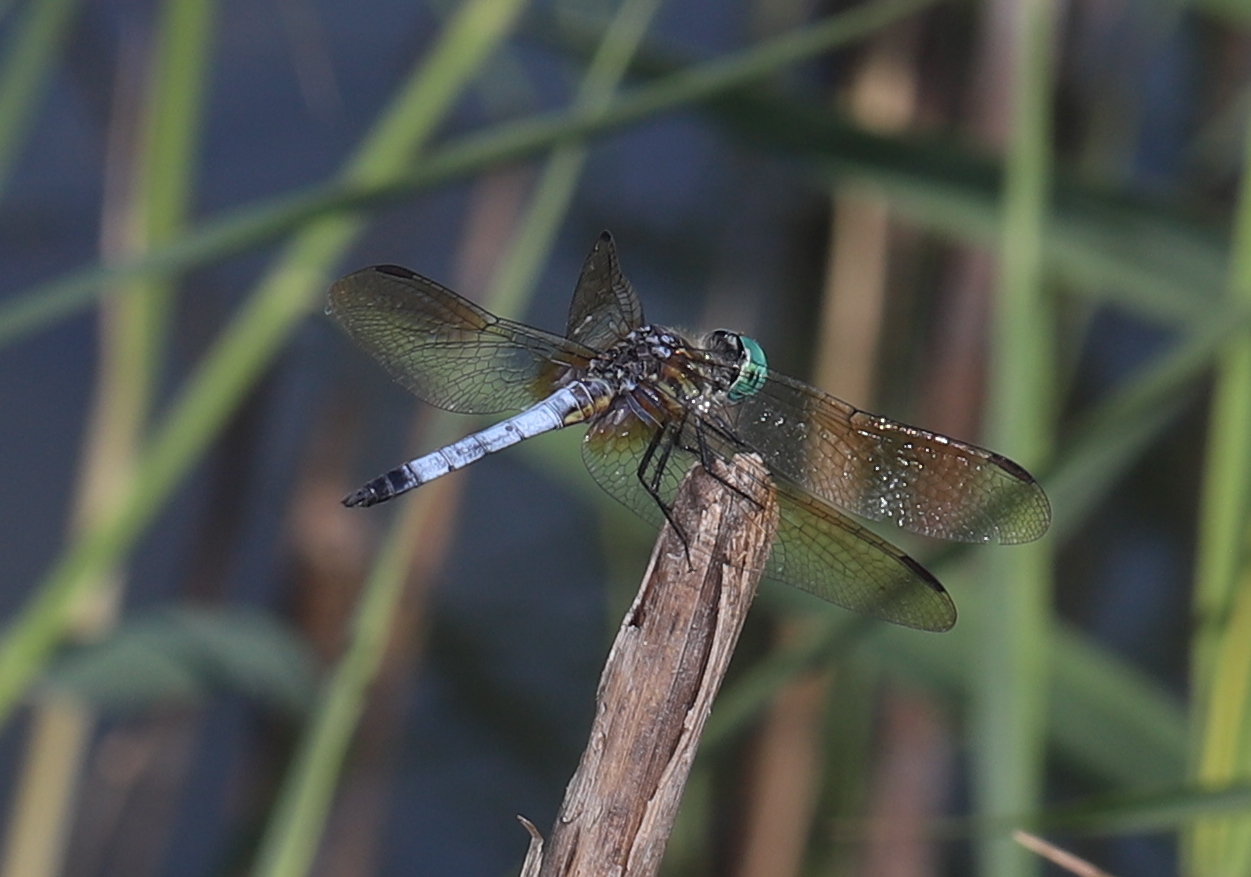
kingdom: Animalia
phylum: Arthropoda
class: Insecta
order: Odonata
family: Libellulidae
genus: Pachydiplax
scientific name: Pachydiplax longipennis
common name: Blue dasher
